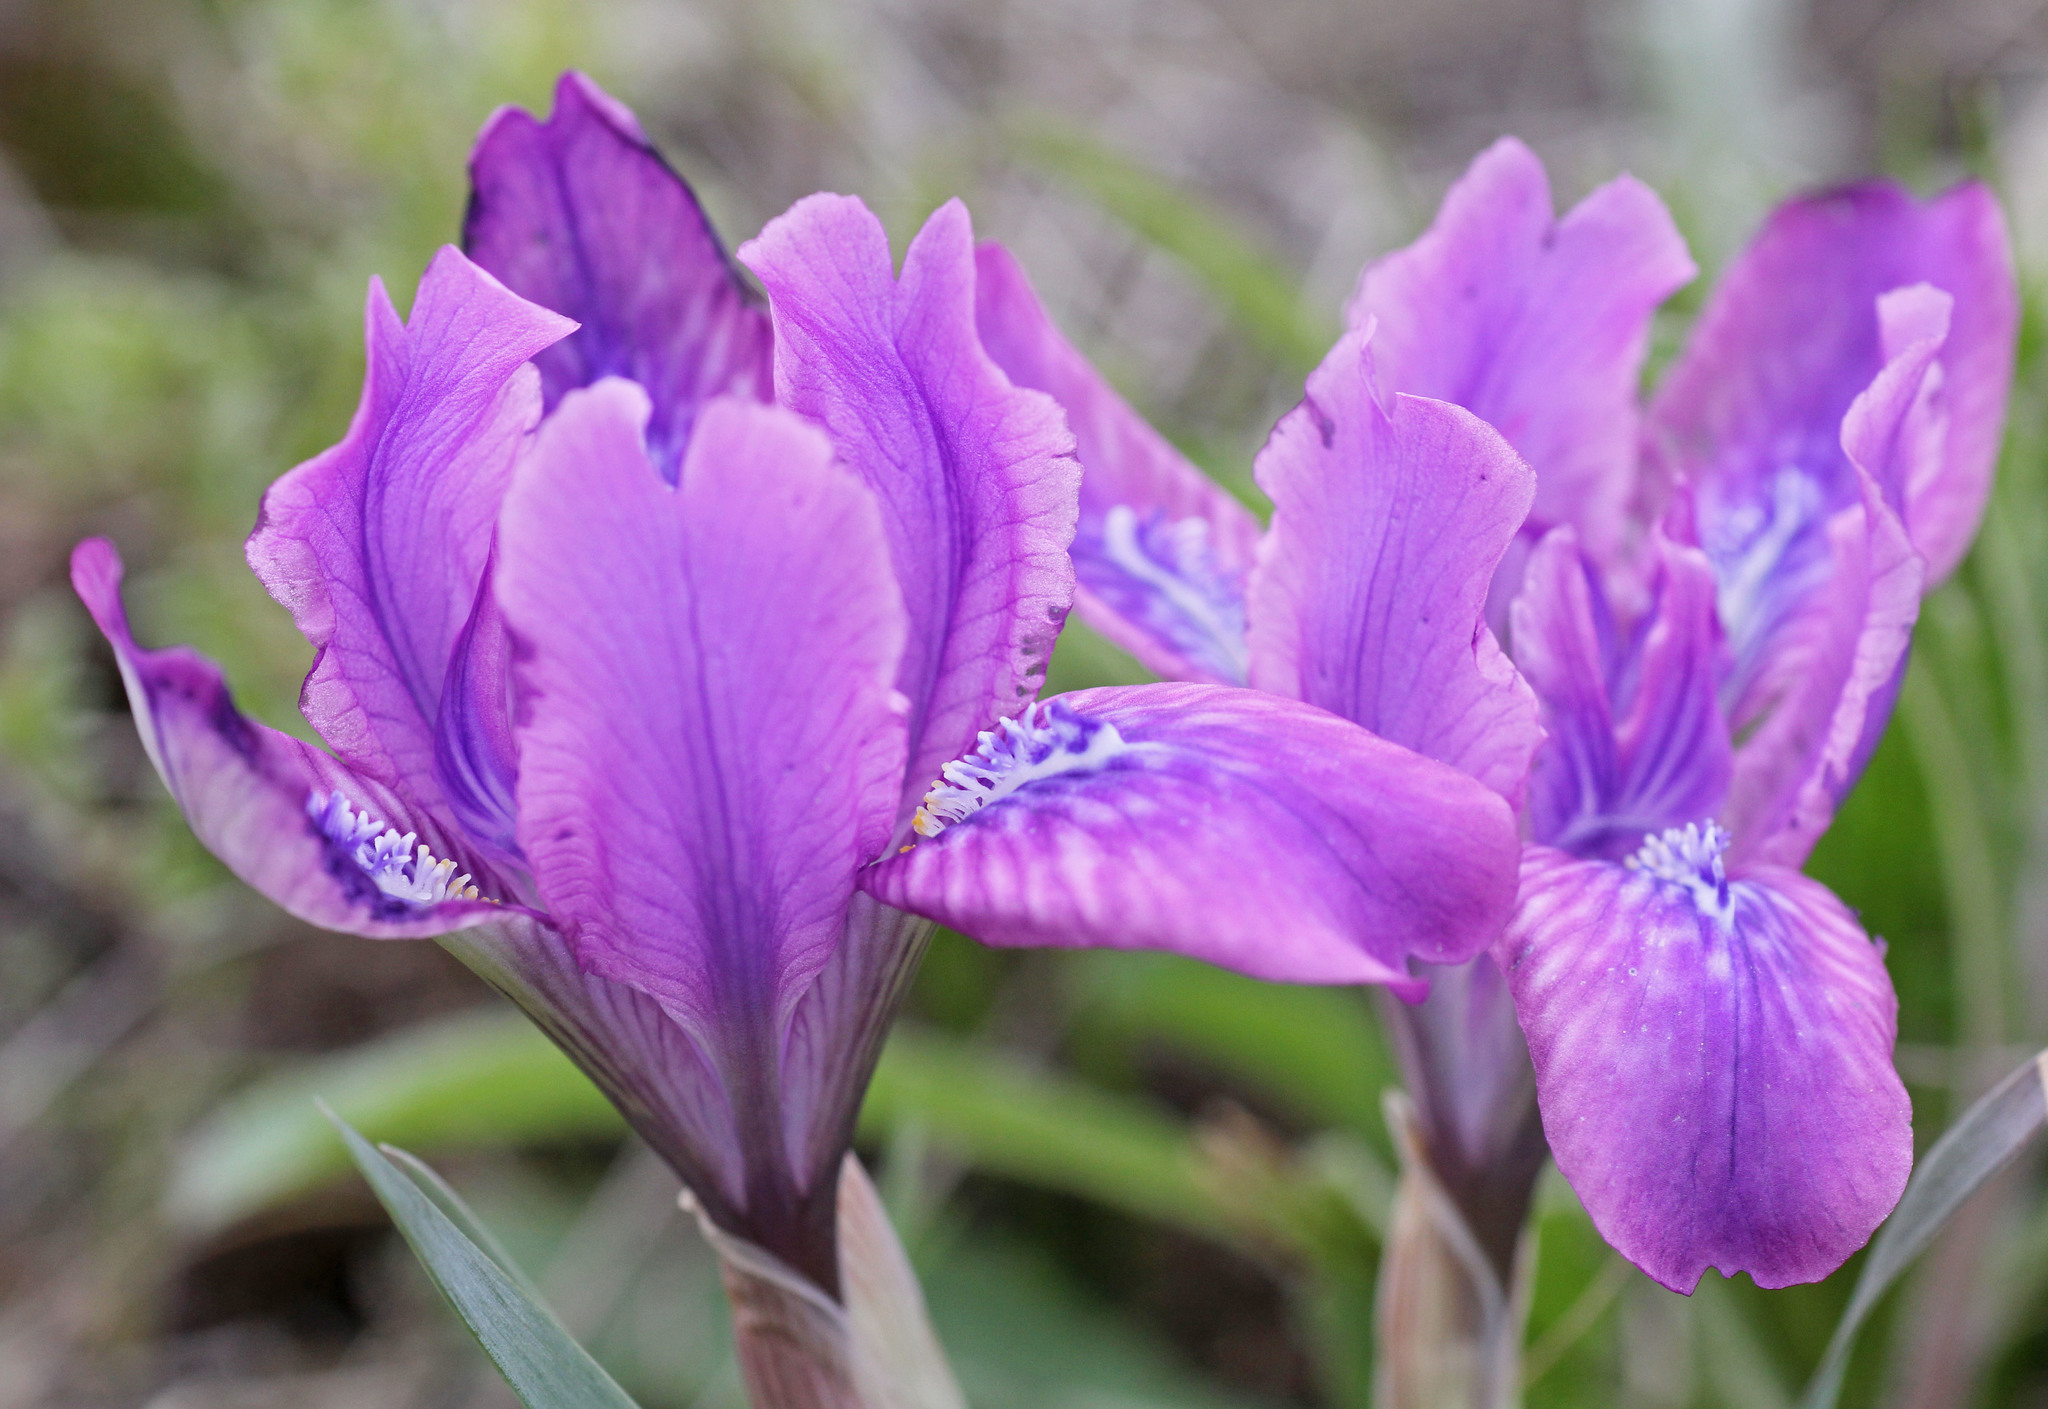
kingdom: Plantae
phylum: Tracheophyta
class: Liliopsida
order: Asparagales
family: Iridaceae
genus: Iris
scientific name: Iris tigridia
